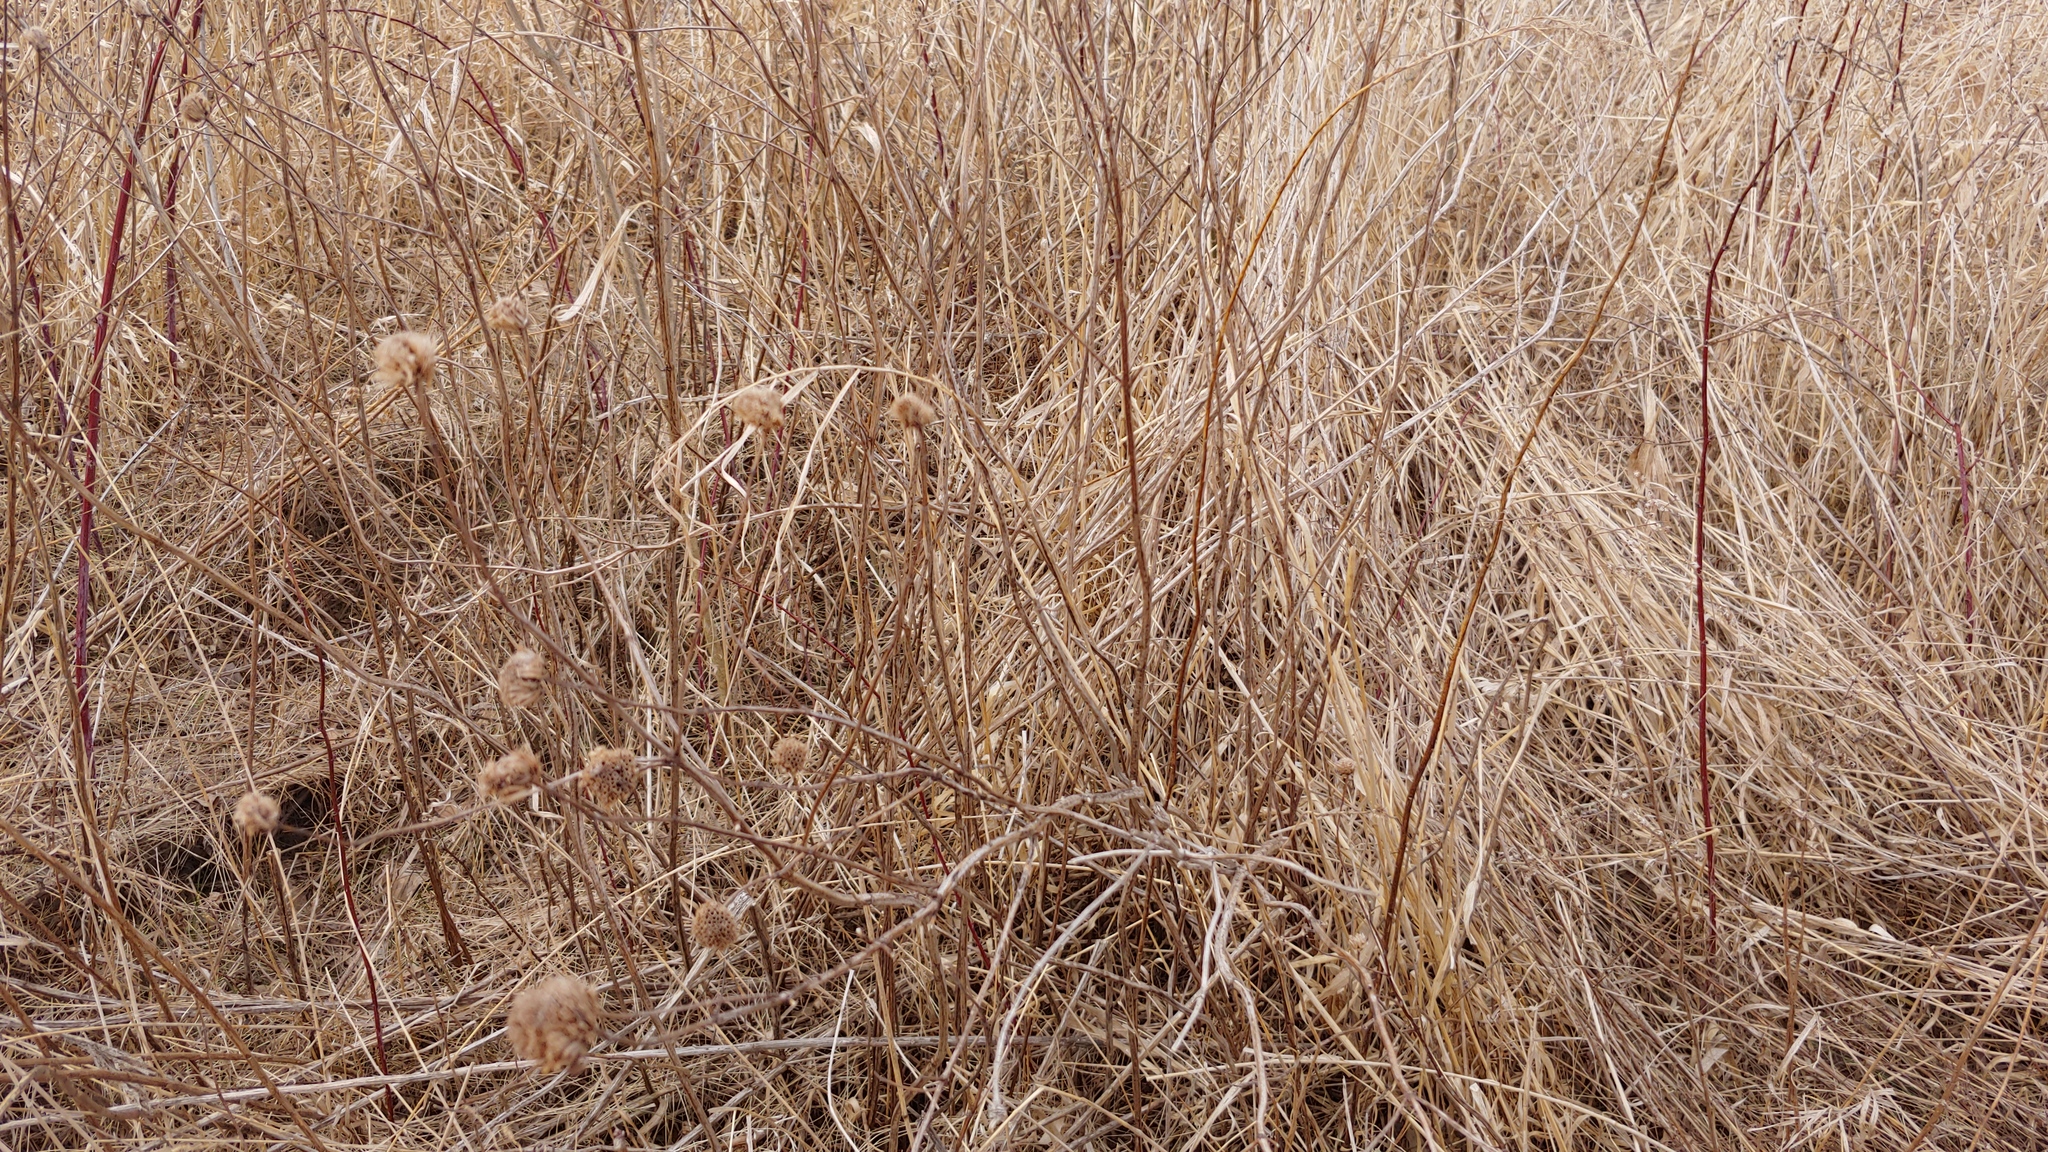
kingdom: Plantae
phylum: Tracheophyta
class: Magnoliopsida
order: Lamiales
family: Lamiaceae
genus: Monarda
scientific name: Monarda fistulosa
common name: Purple beebalm
